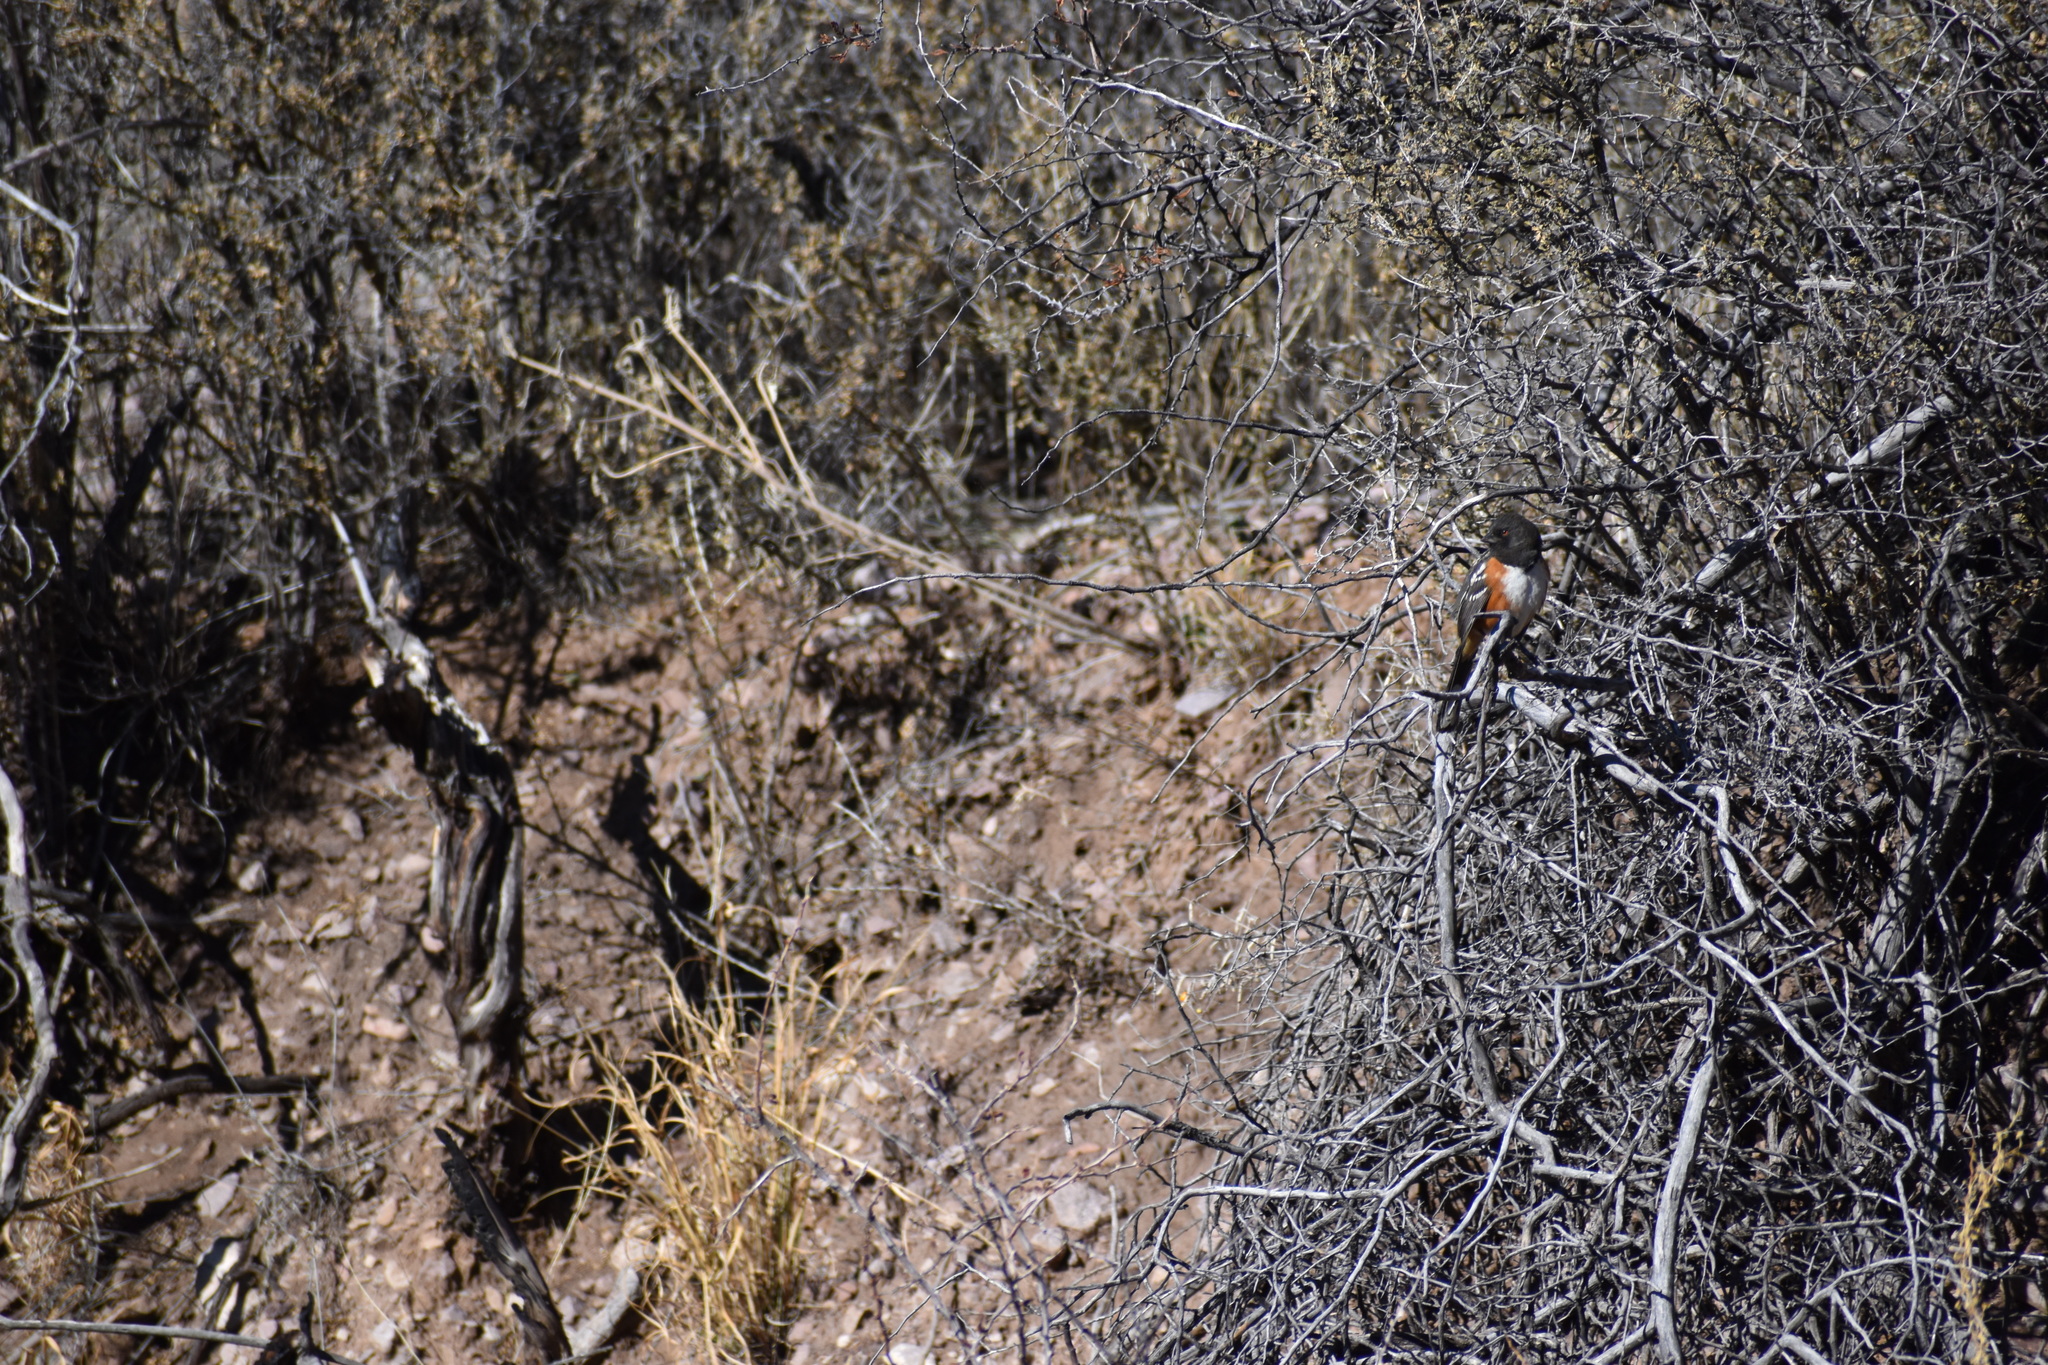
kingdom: Animalia
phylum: Chordata
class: Aves
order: Passeriformes
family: Passerellidae
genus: Pipilo
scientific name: Pipilo maculatus
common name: Spotted towhee
